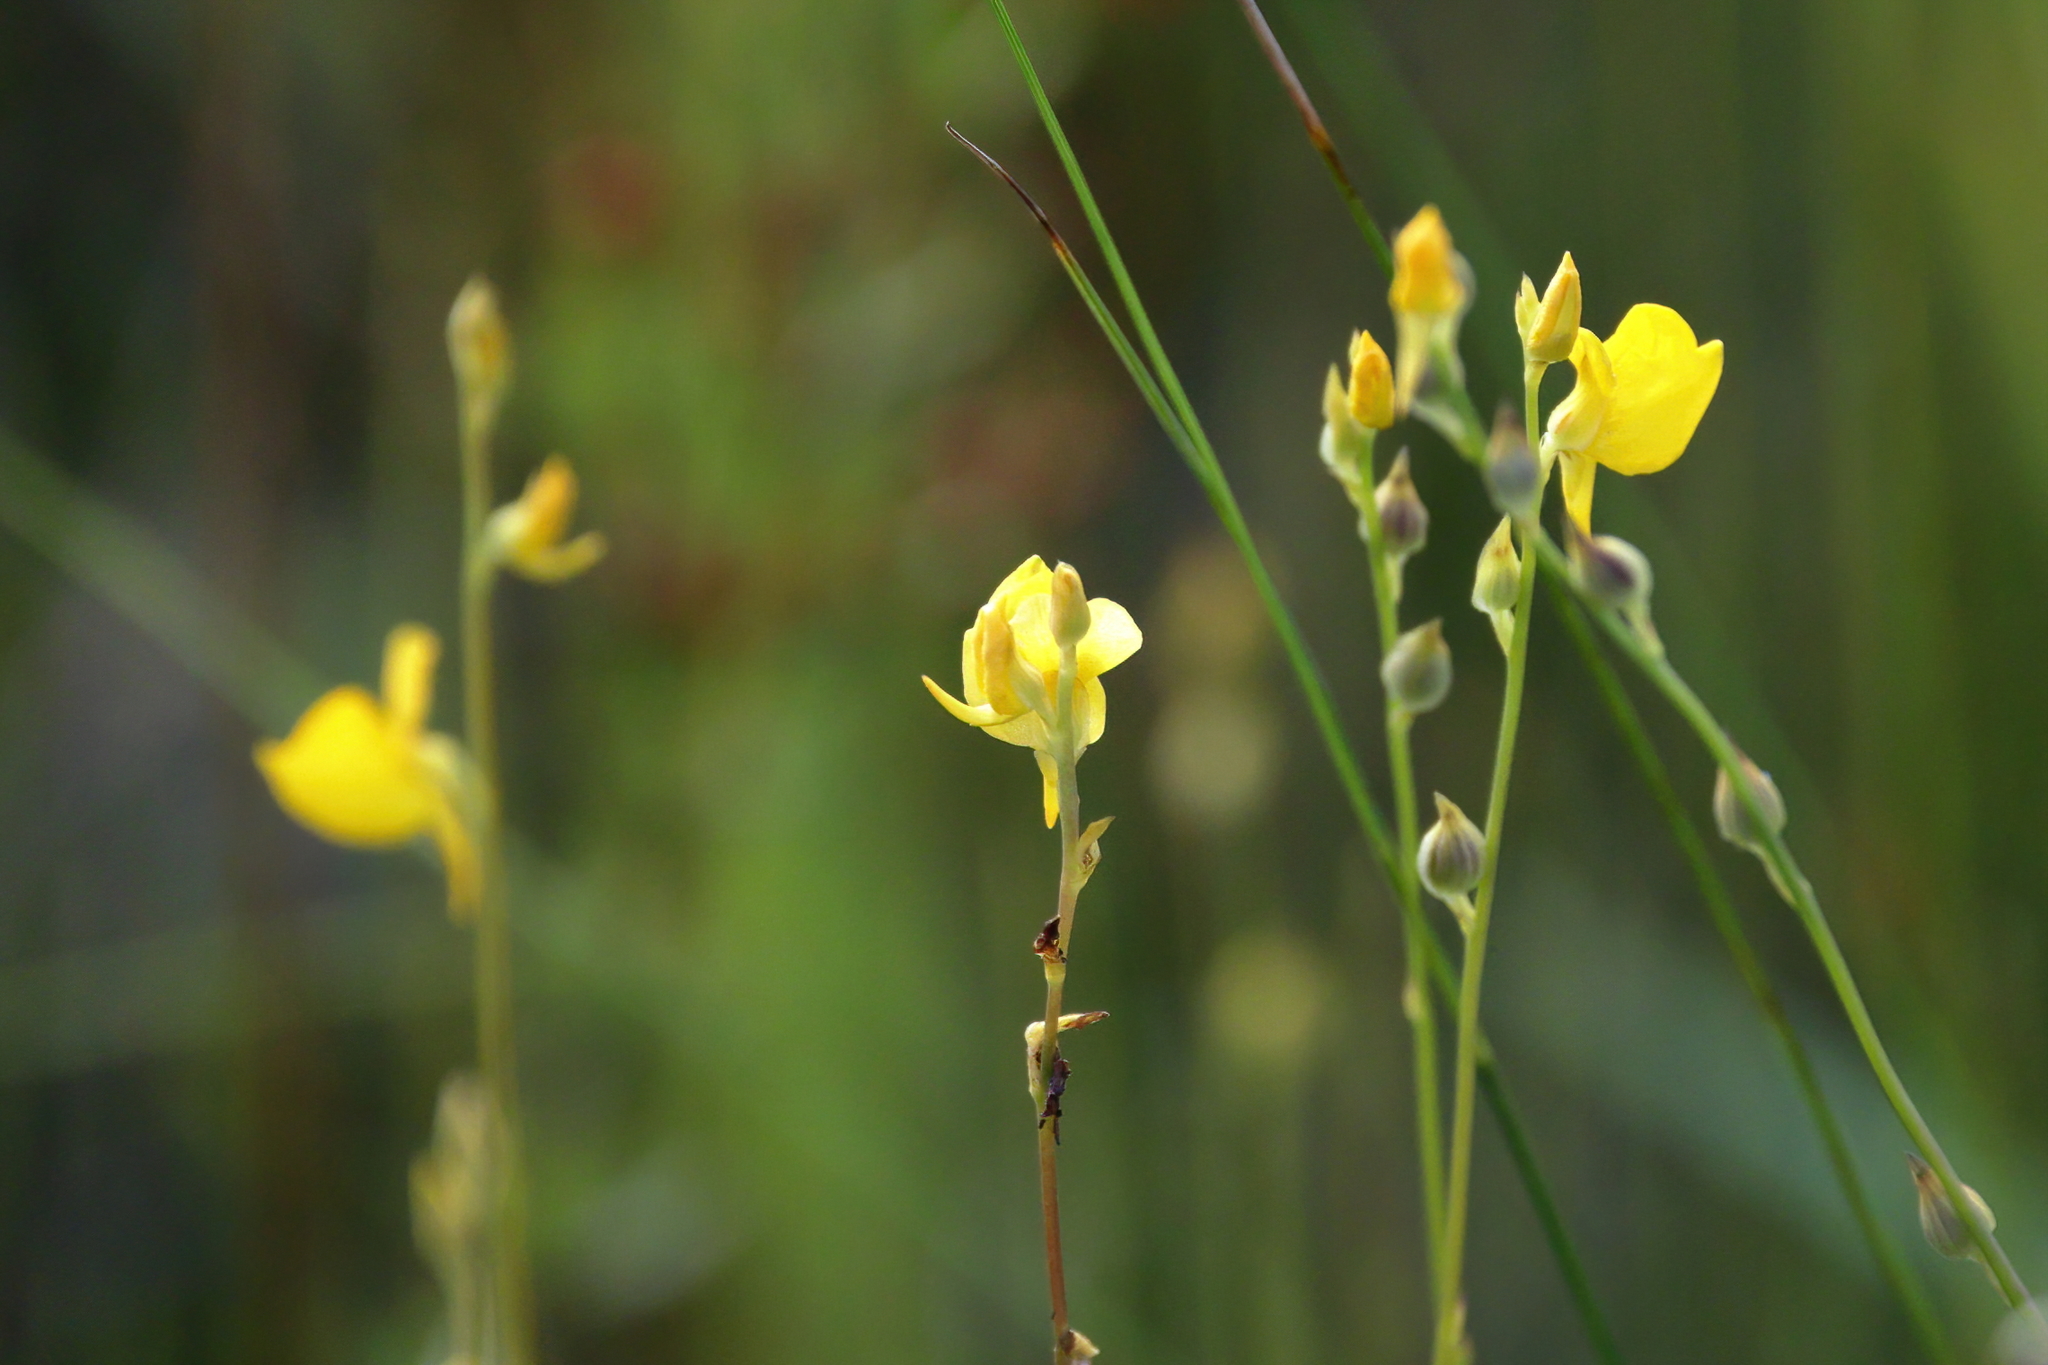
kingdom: Plantae
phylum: Tracheophyta
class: Magnoliopsida
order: Lamiales
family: Lentibulariaceae
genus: Utricularia
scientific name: Utricularia juncea
